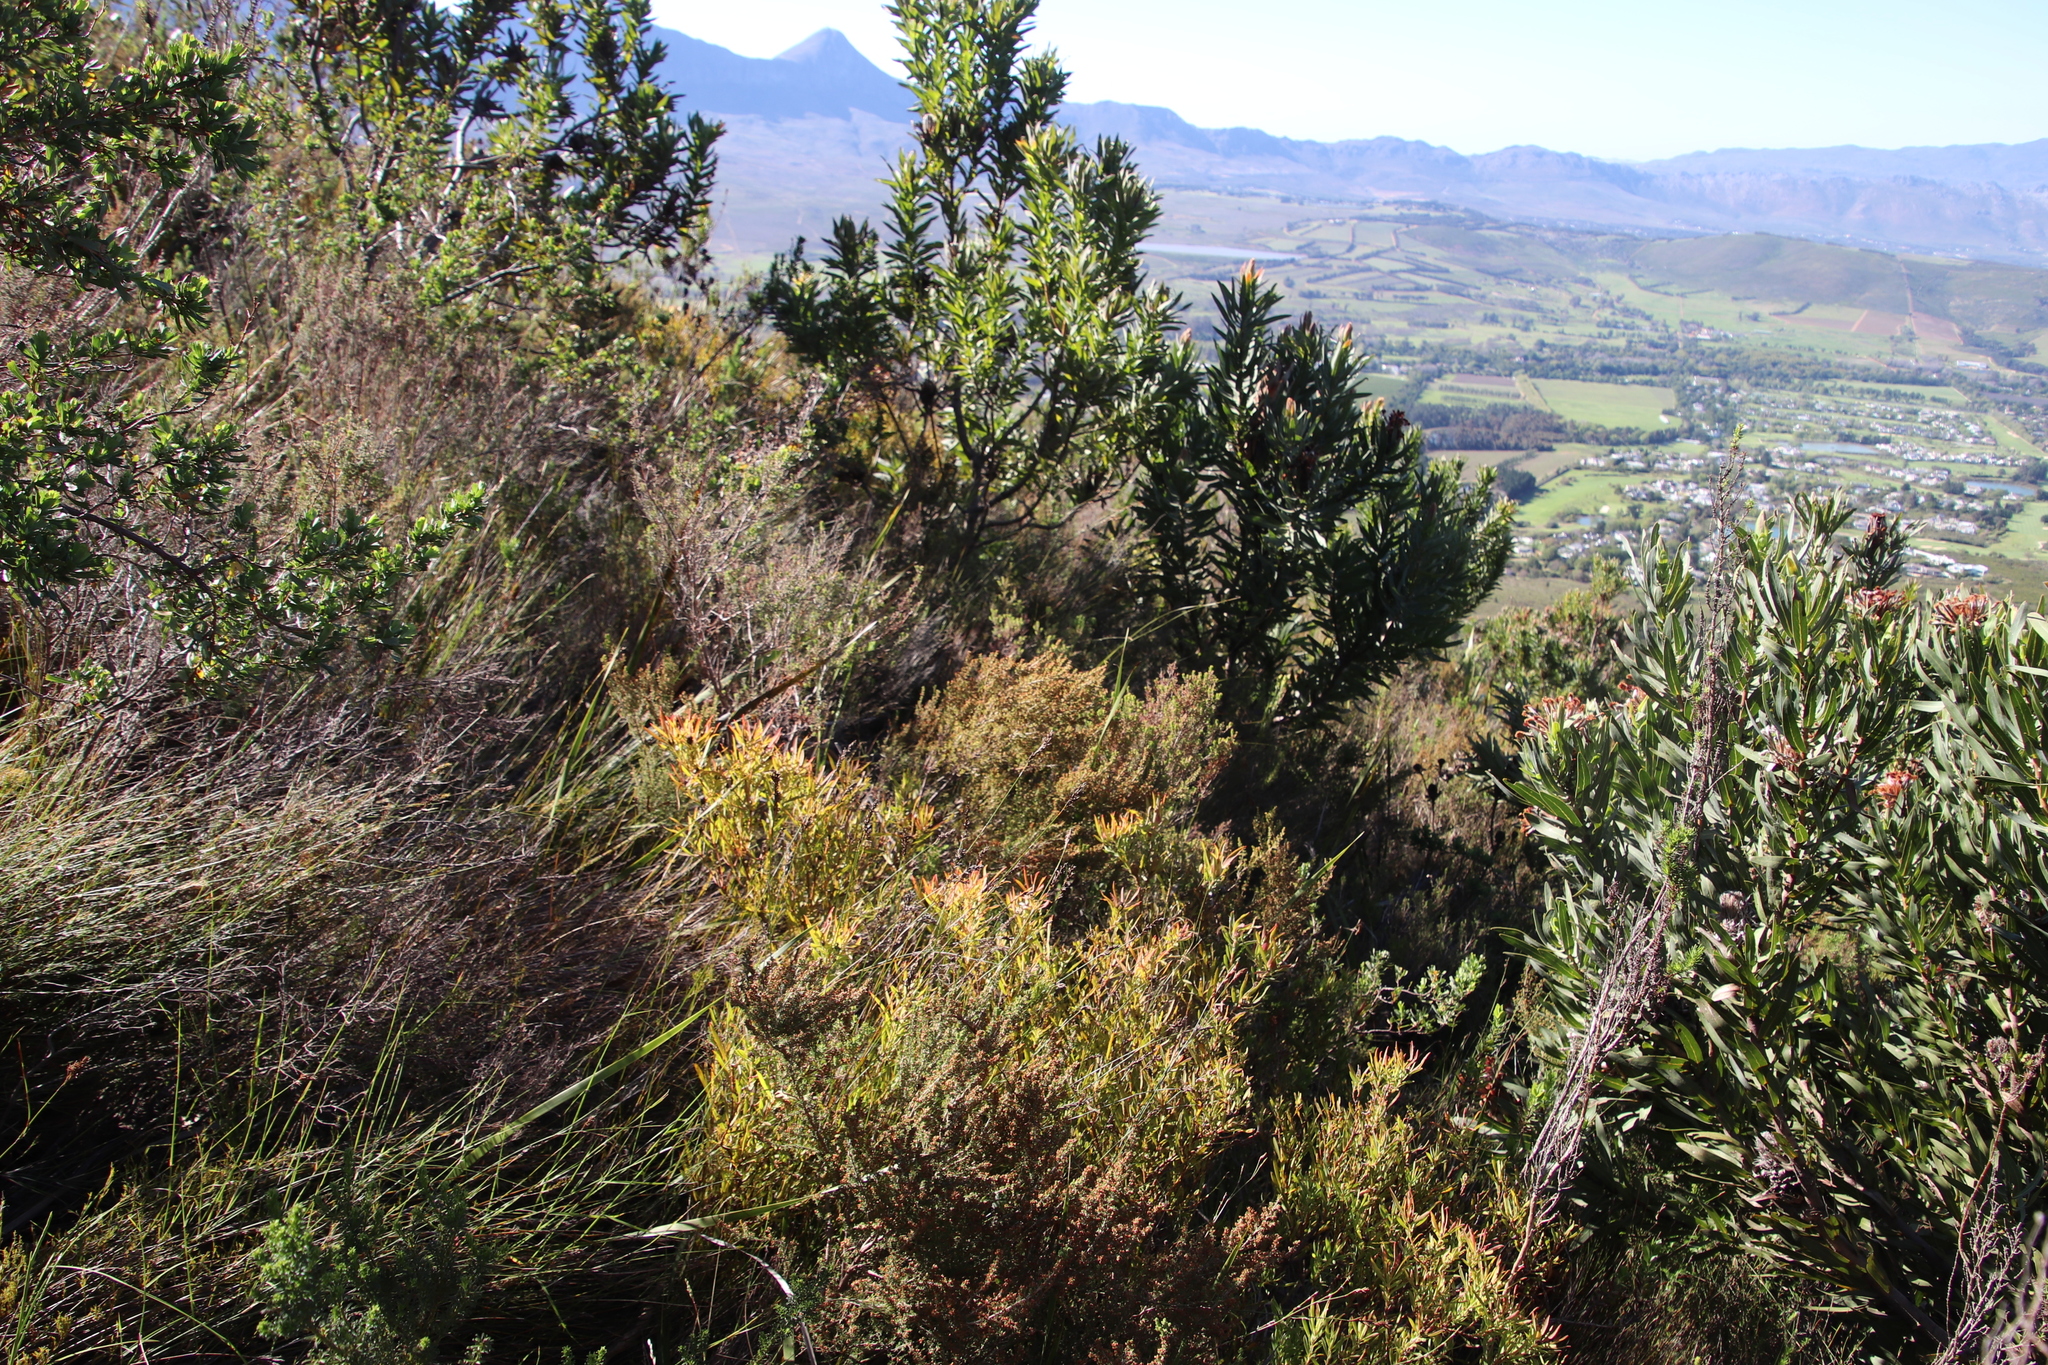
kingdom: Plantae
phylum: Tracheophyta
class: Magnoliopsida
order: Proteales
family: Proteaceae
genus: Leucadendron
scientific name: Leucadendron spissifolium
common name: Spear-leaf conebush
